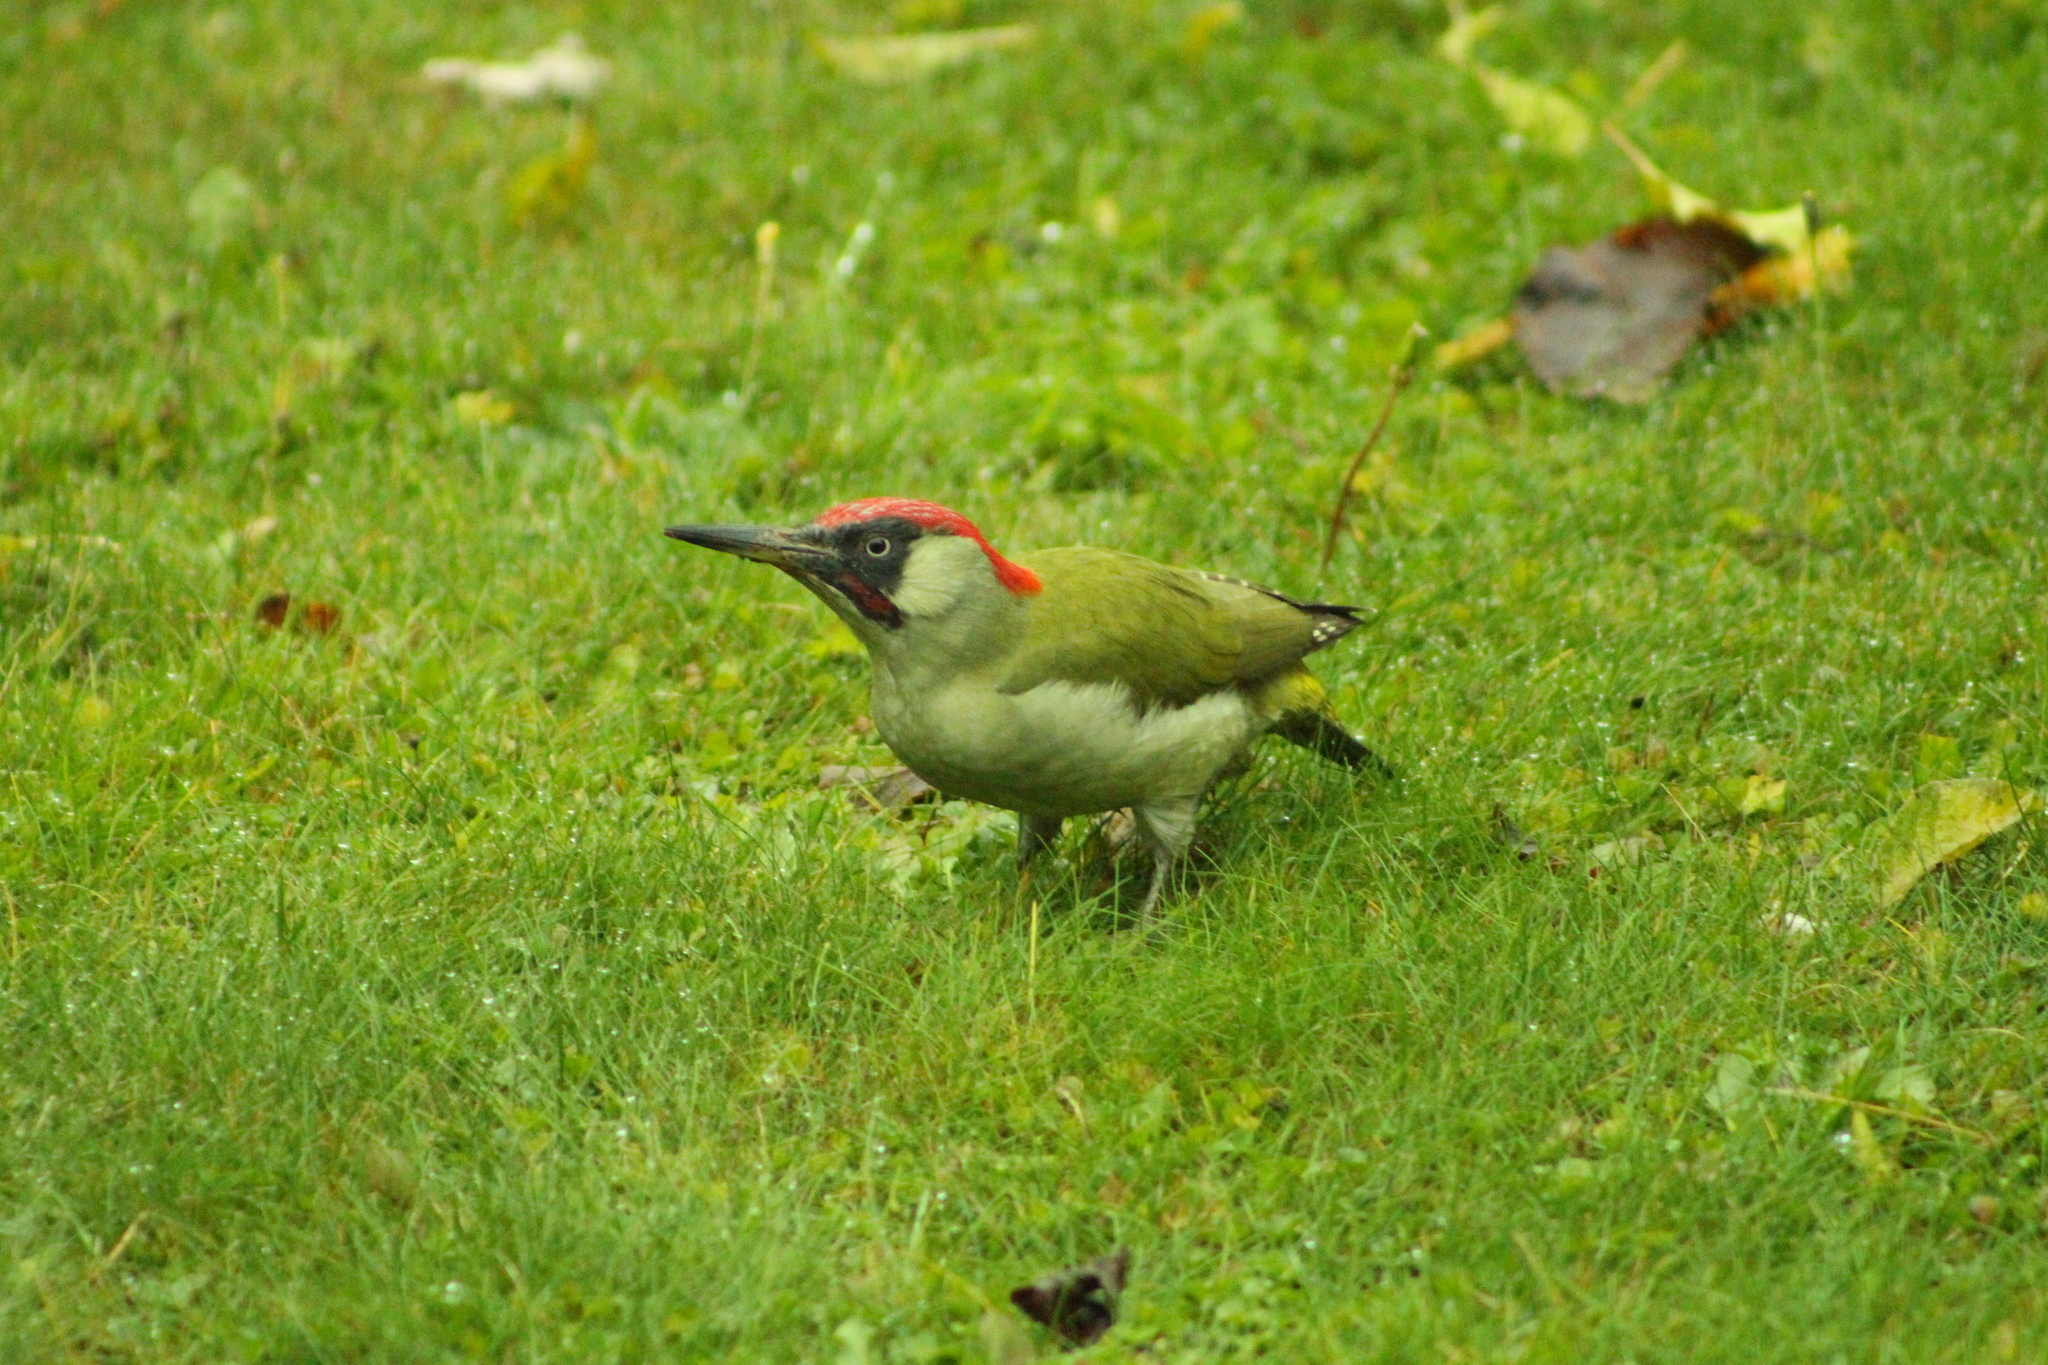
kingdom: Animalia
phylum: Chordata
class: Aves
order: Piciformes
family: Picidae
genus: Picus
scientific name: Picus viridis
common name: European green woodpecker
